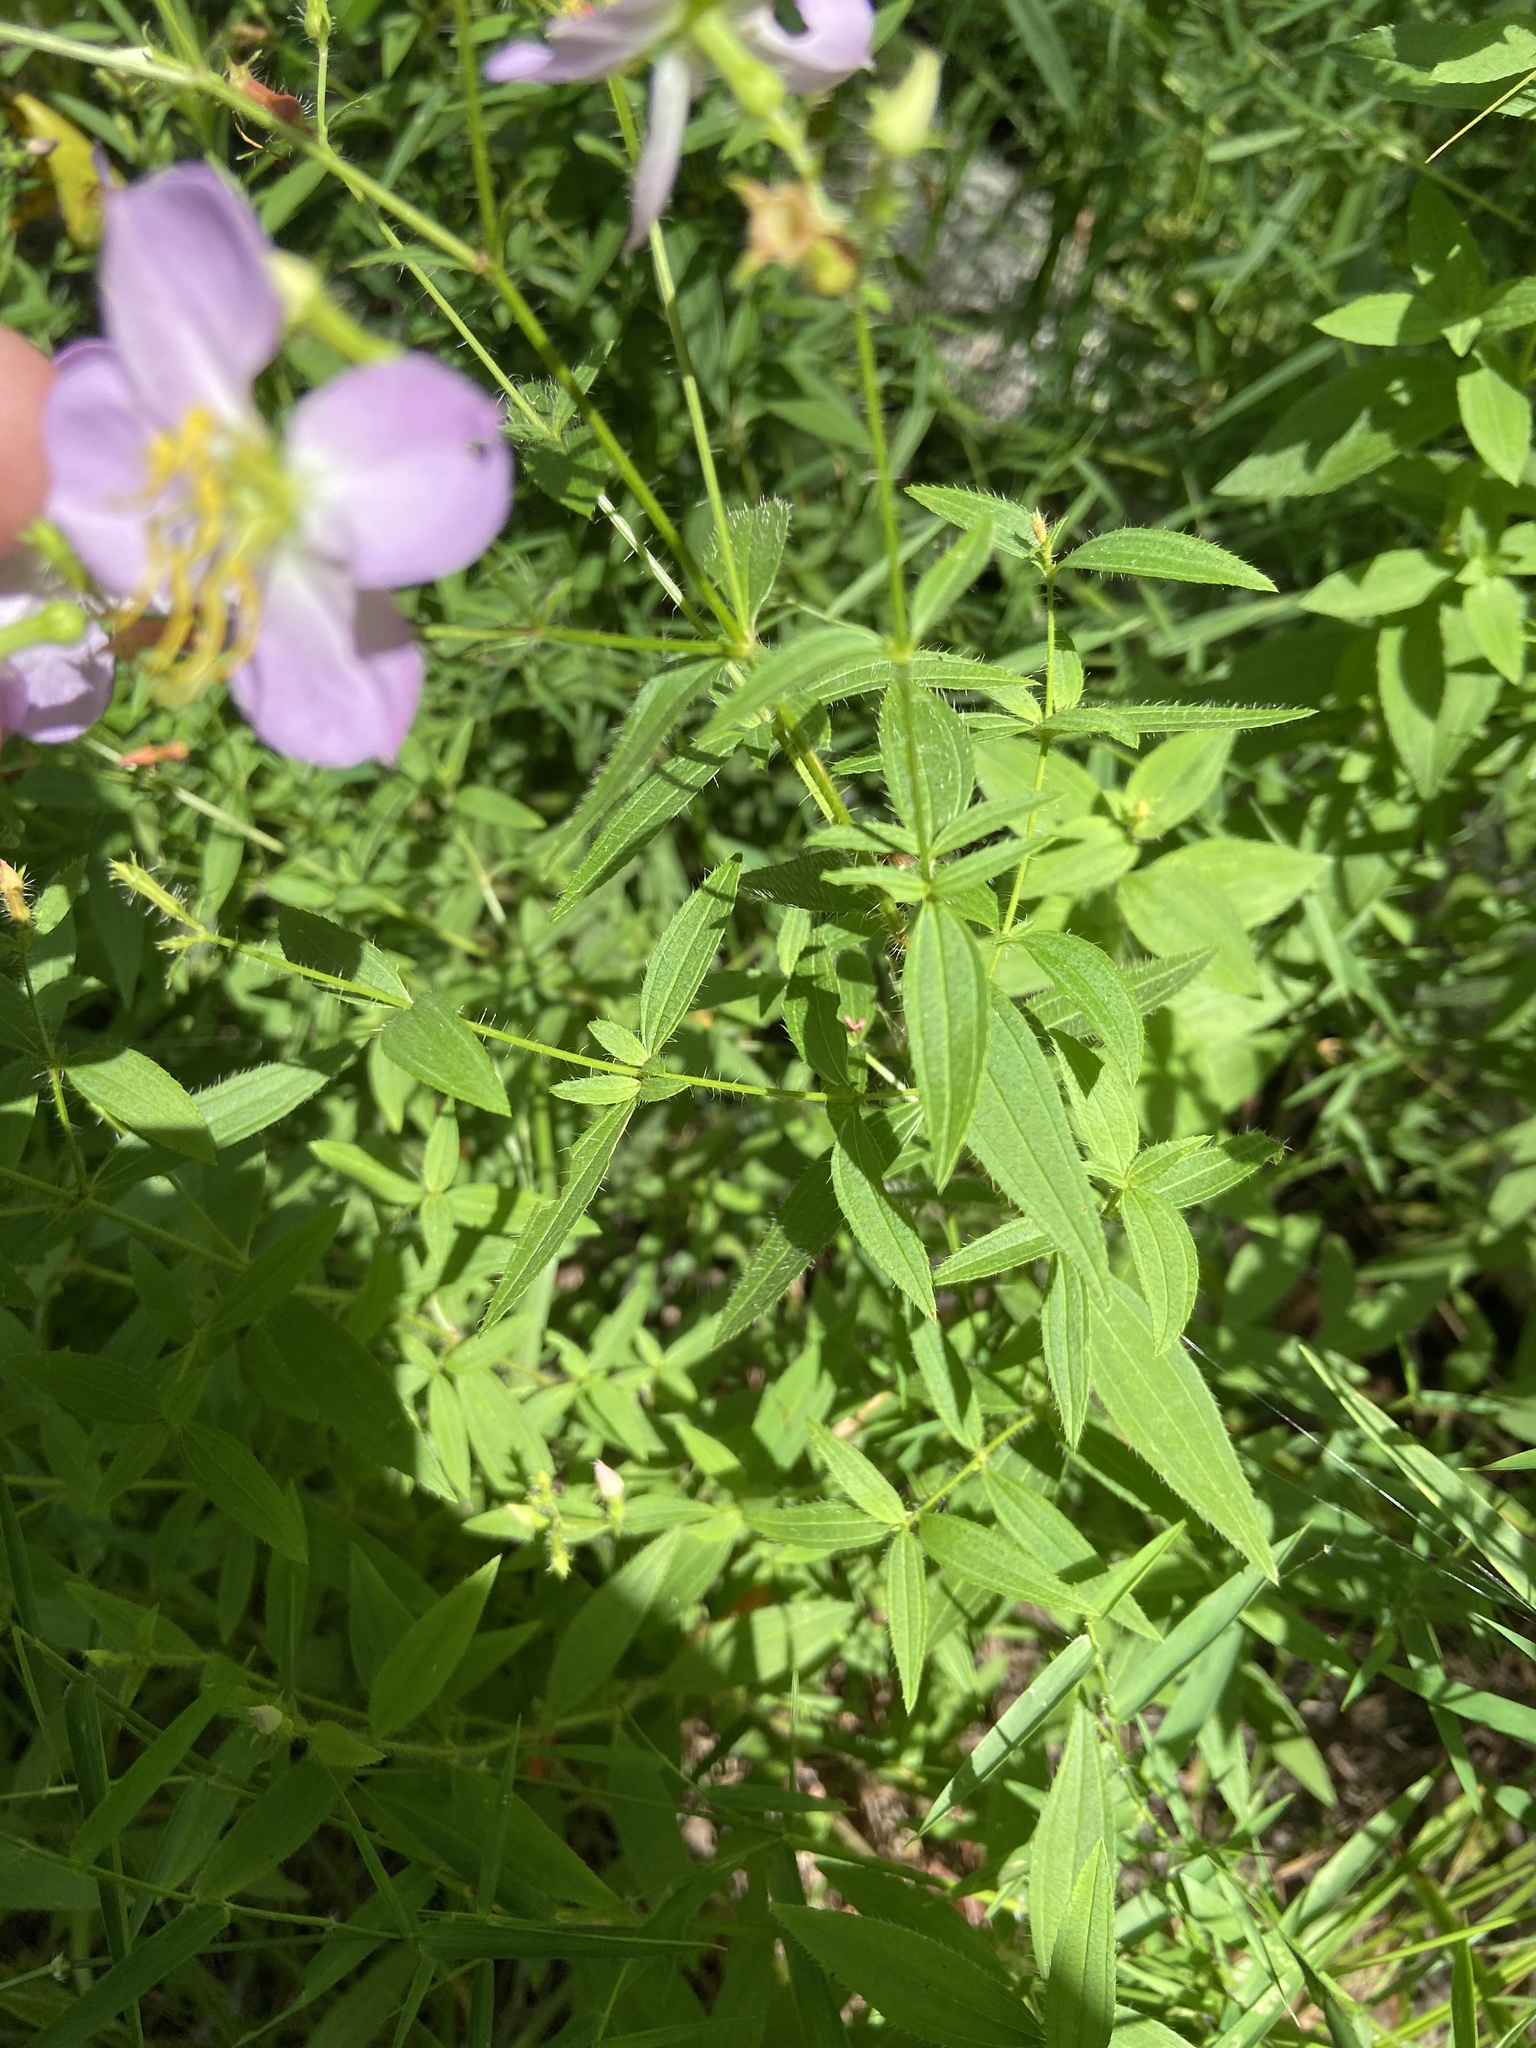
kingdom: Plantae
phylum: Tracheophyta
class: Magnoliopsida
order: Myrtales
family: Melastomataceae
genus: Rhexia
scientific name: Rhexia mariana
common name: Dull meadow-pitcher
